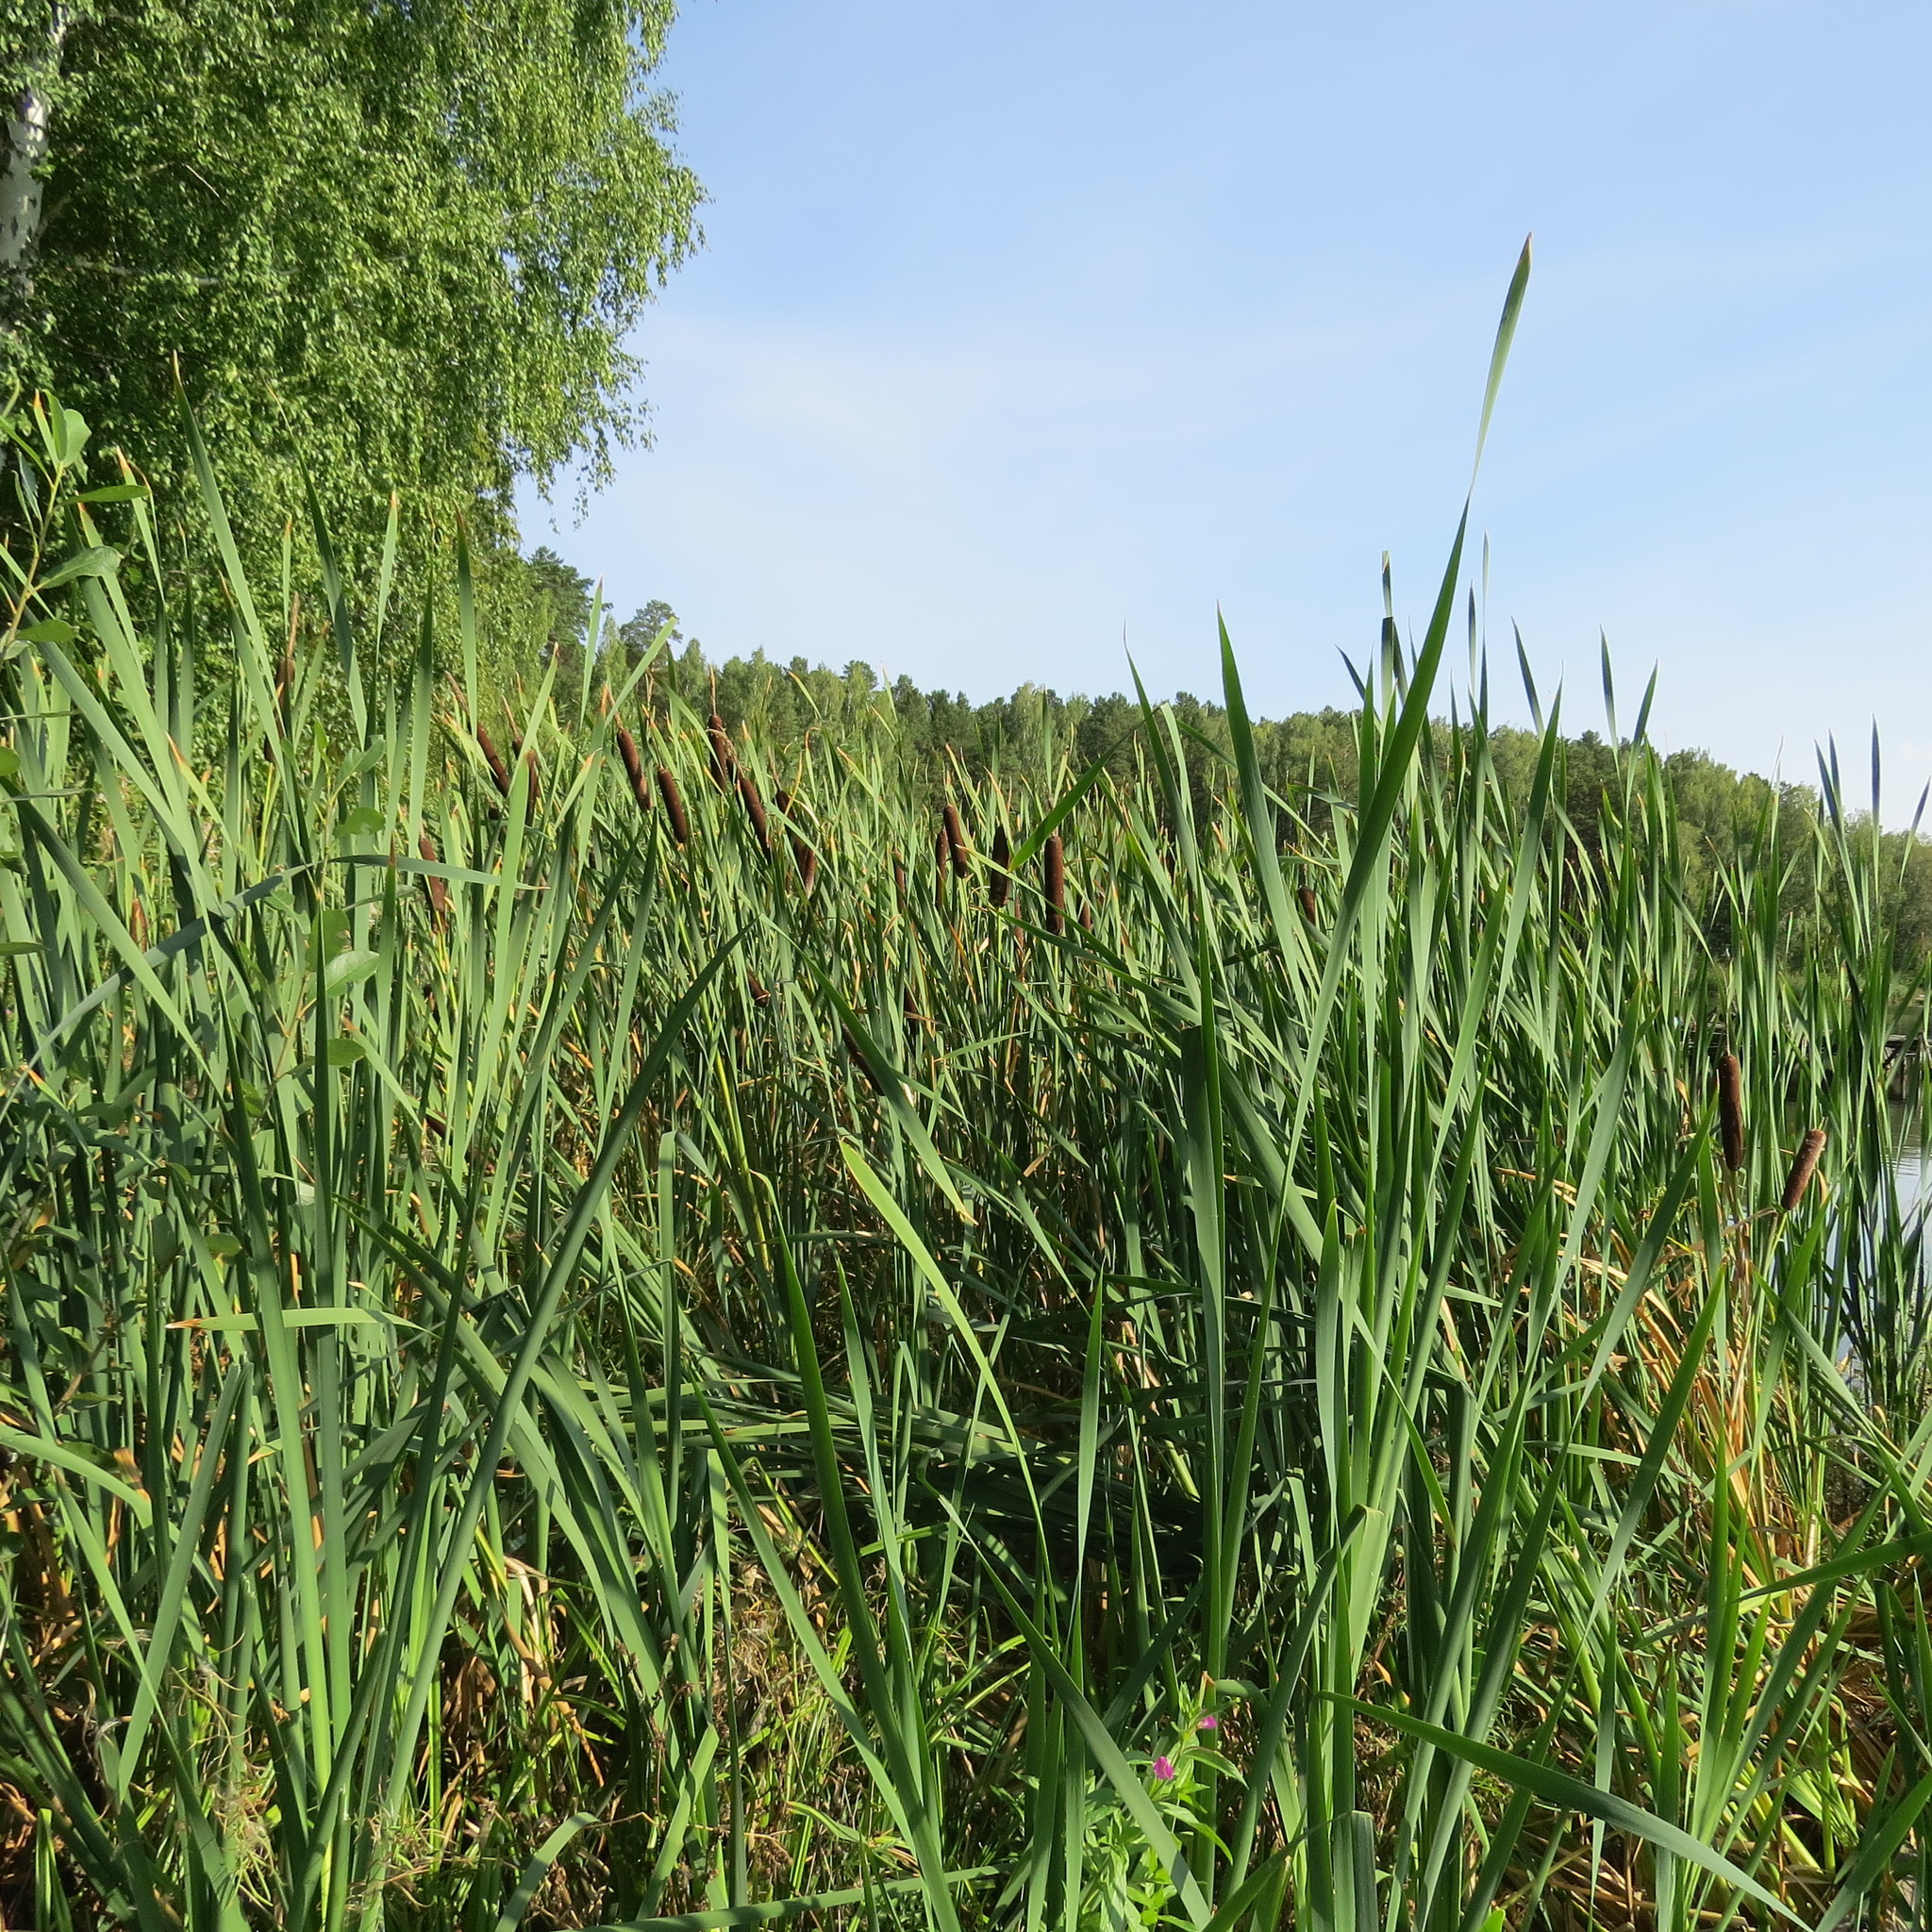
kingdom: Plantae
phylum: Tracheophyta
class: Liliopsida
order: Poales
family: Typhaceae
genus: Typha
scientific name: Typha latifolia
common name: Broadleaf cattail
